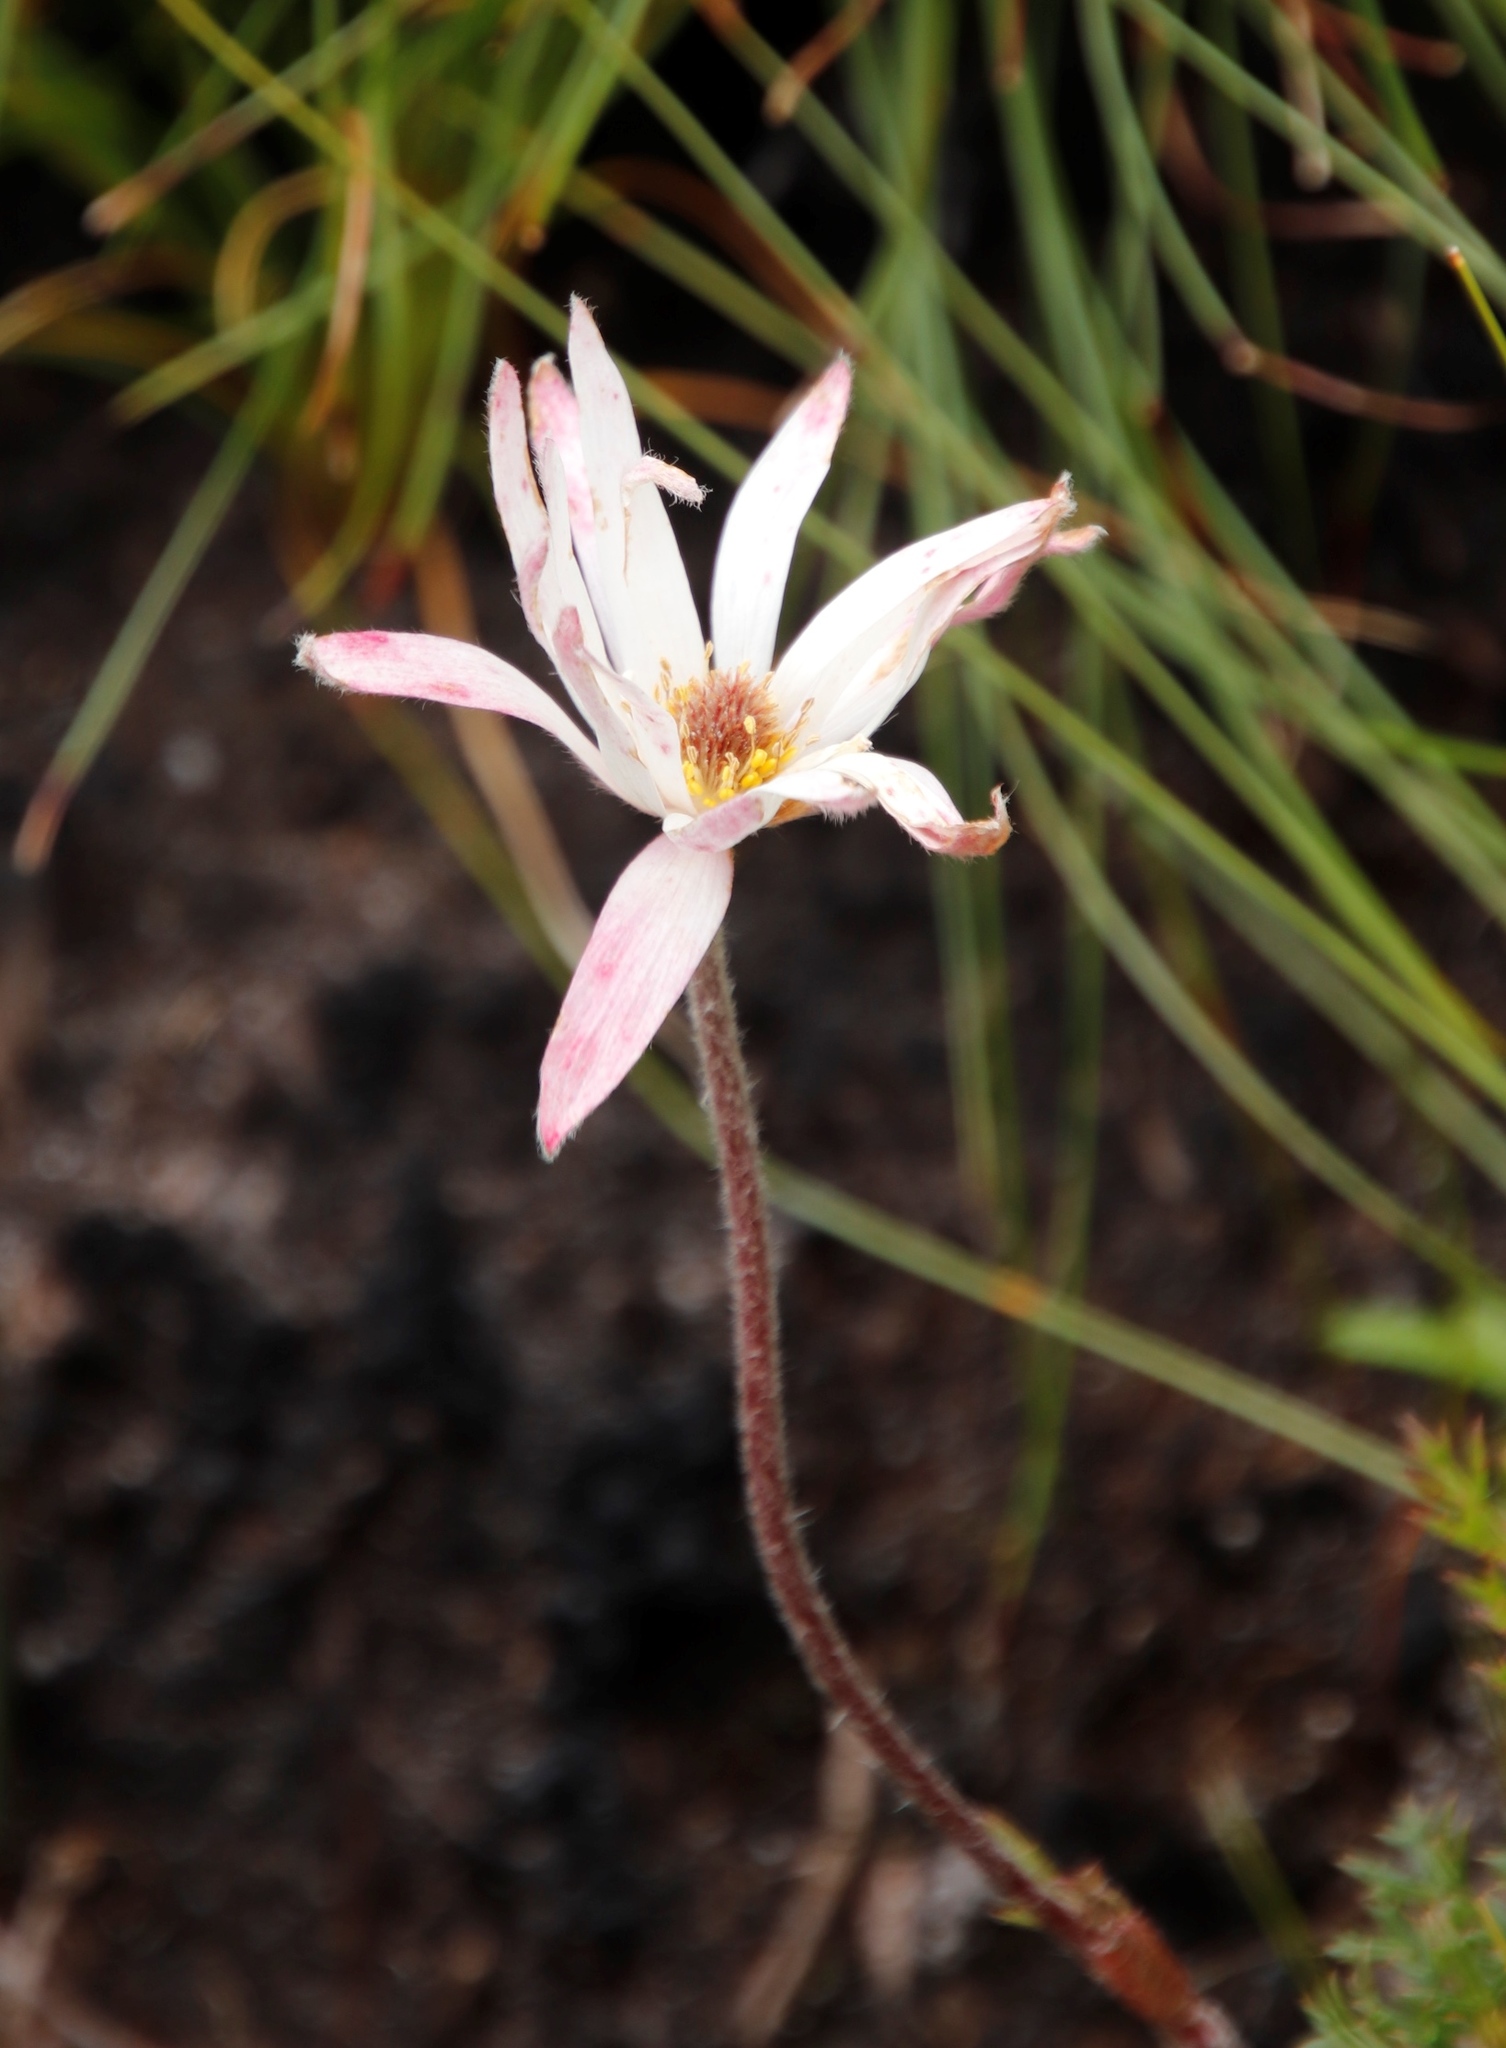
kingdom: Plantae
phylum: Tracheophyta
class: Magnoliopsida
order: Ranunculales
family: Ranunculaceae
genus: Knowltonia
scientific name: Knowltonia tenuifolia
